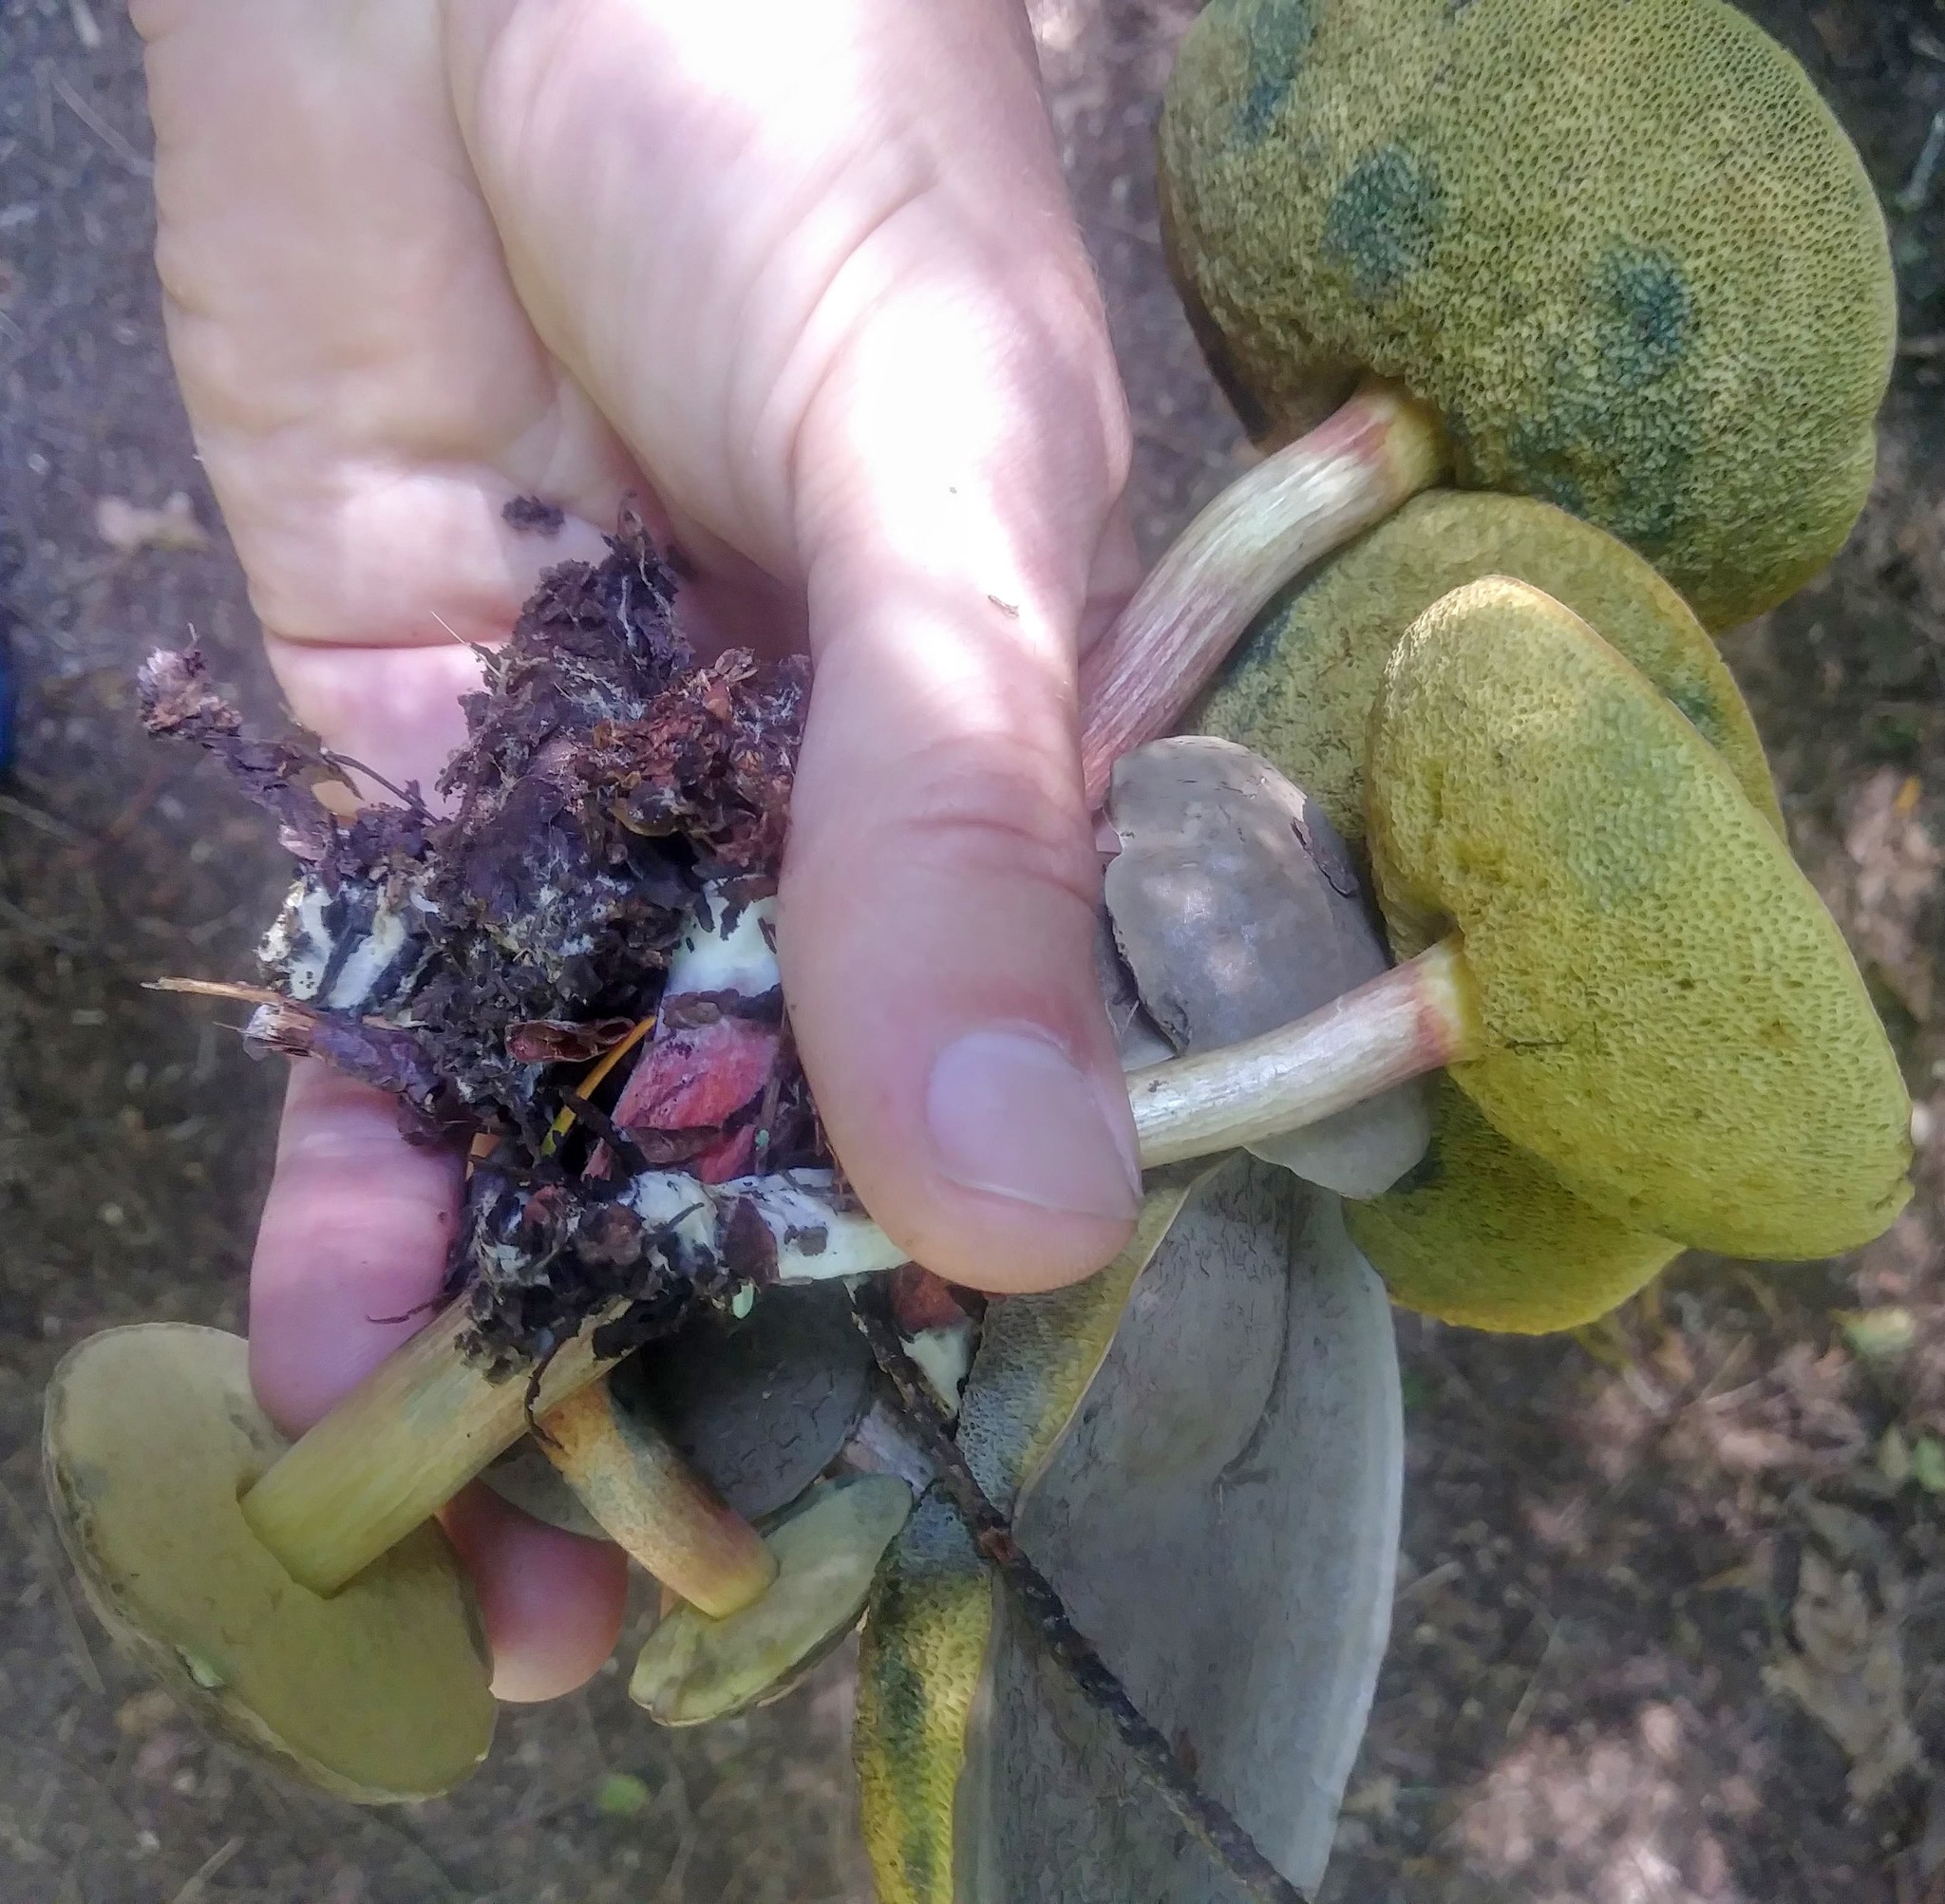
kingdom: Fungi
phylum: Basidiomycota
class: Agaricomycetes
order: Boletales
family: Boletaceae
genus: Xerocomellus
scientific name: Xerocomellus diffractus
